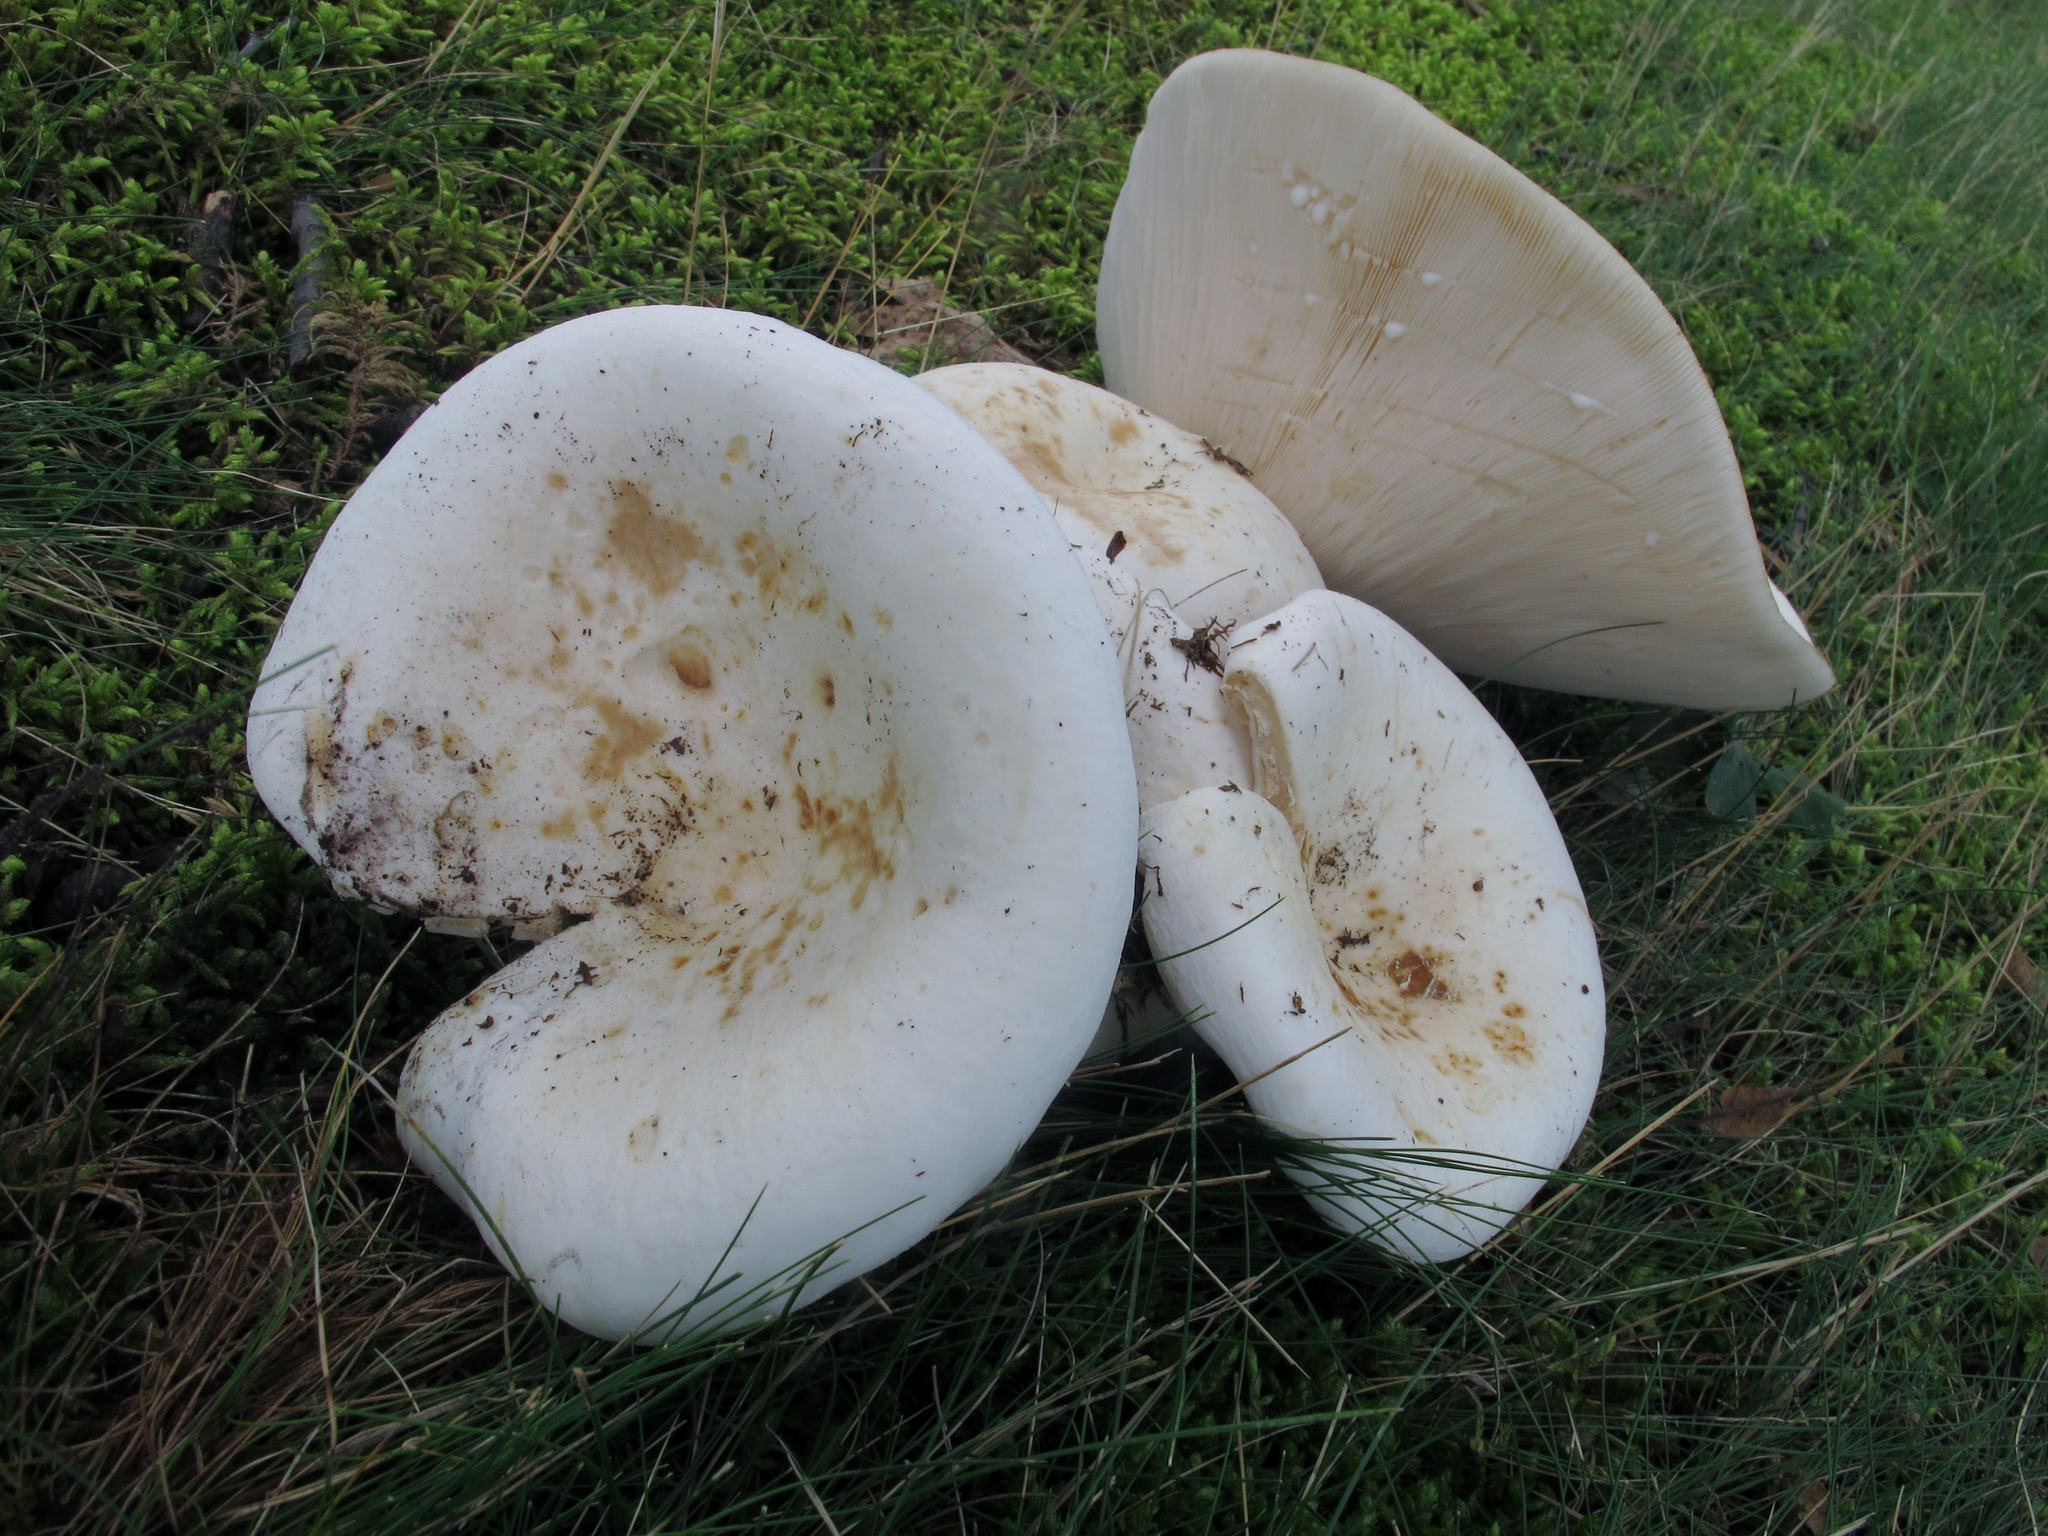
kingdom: Fungi
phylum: Basidiomycota
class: Agaricomycetes
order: Russulales
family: Russulaceae
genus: Lactifluus
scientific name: Lactifluus piperatus
